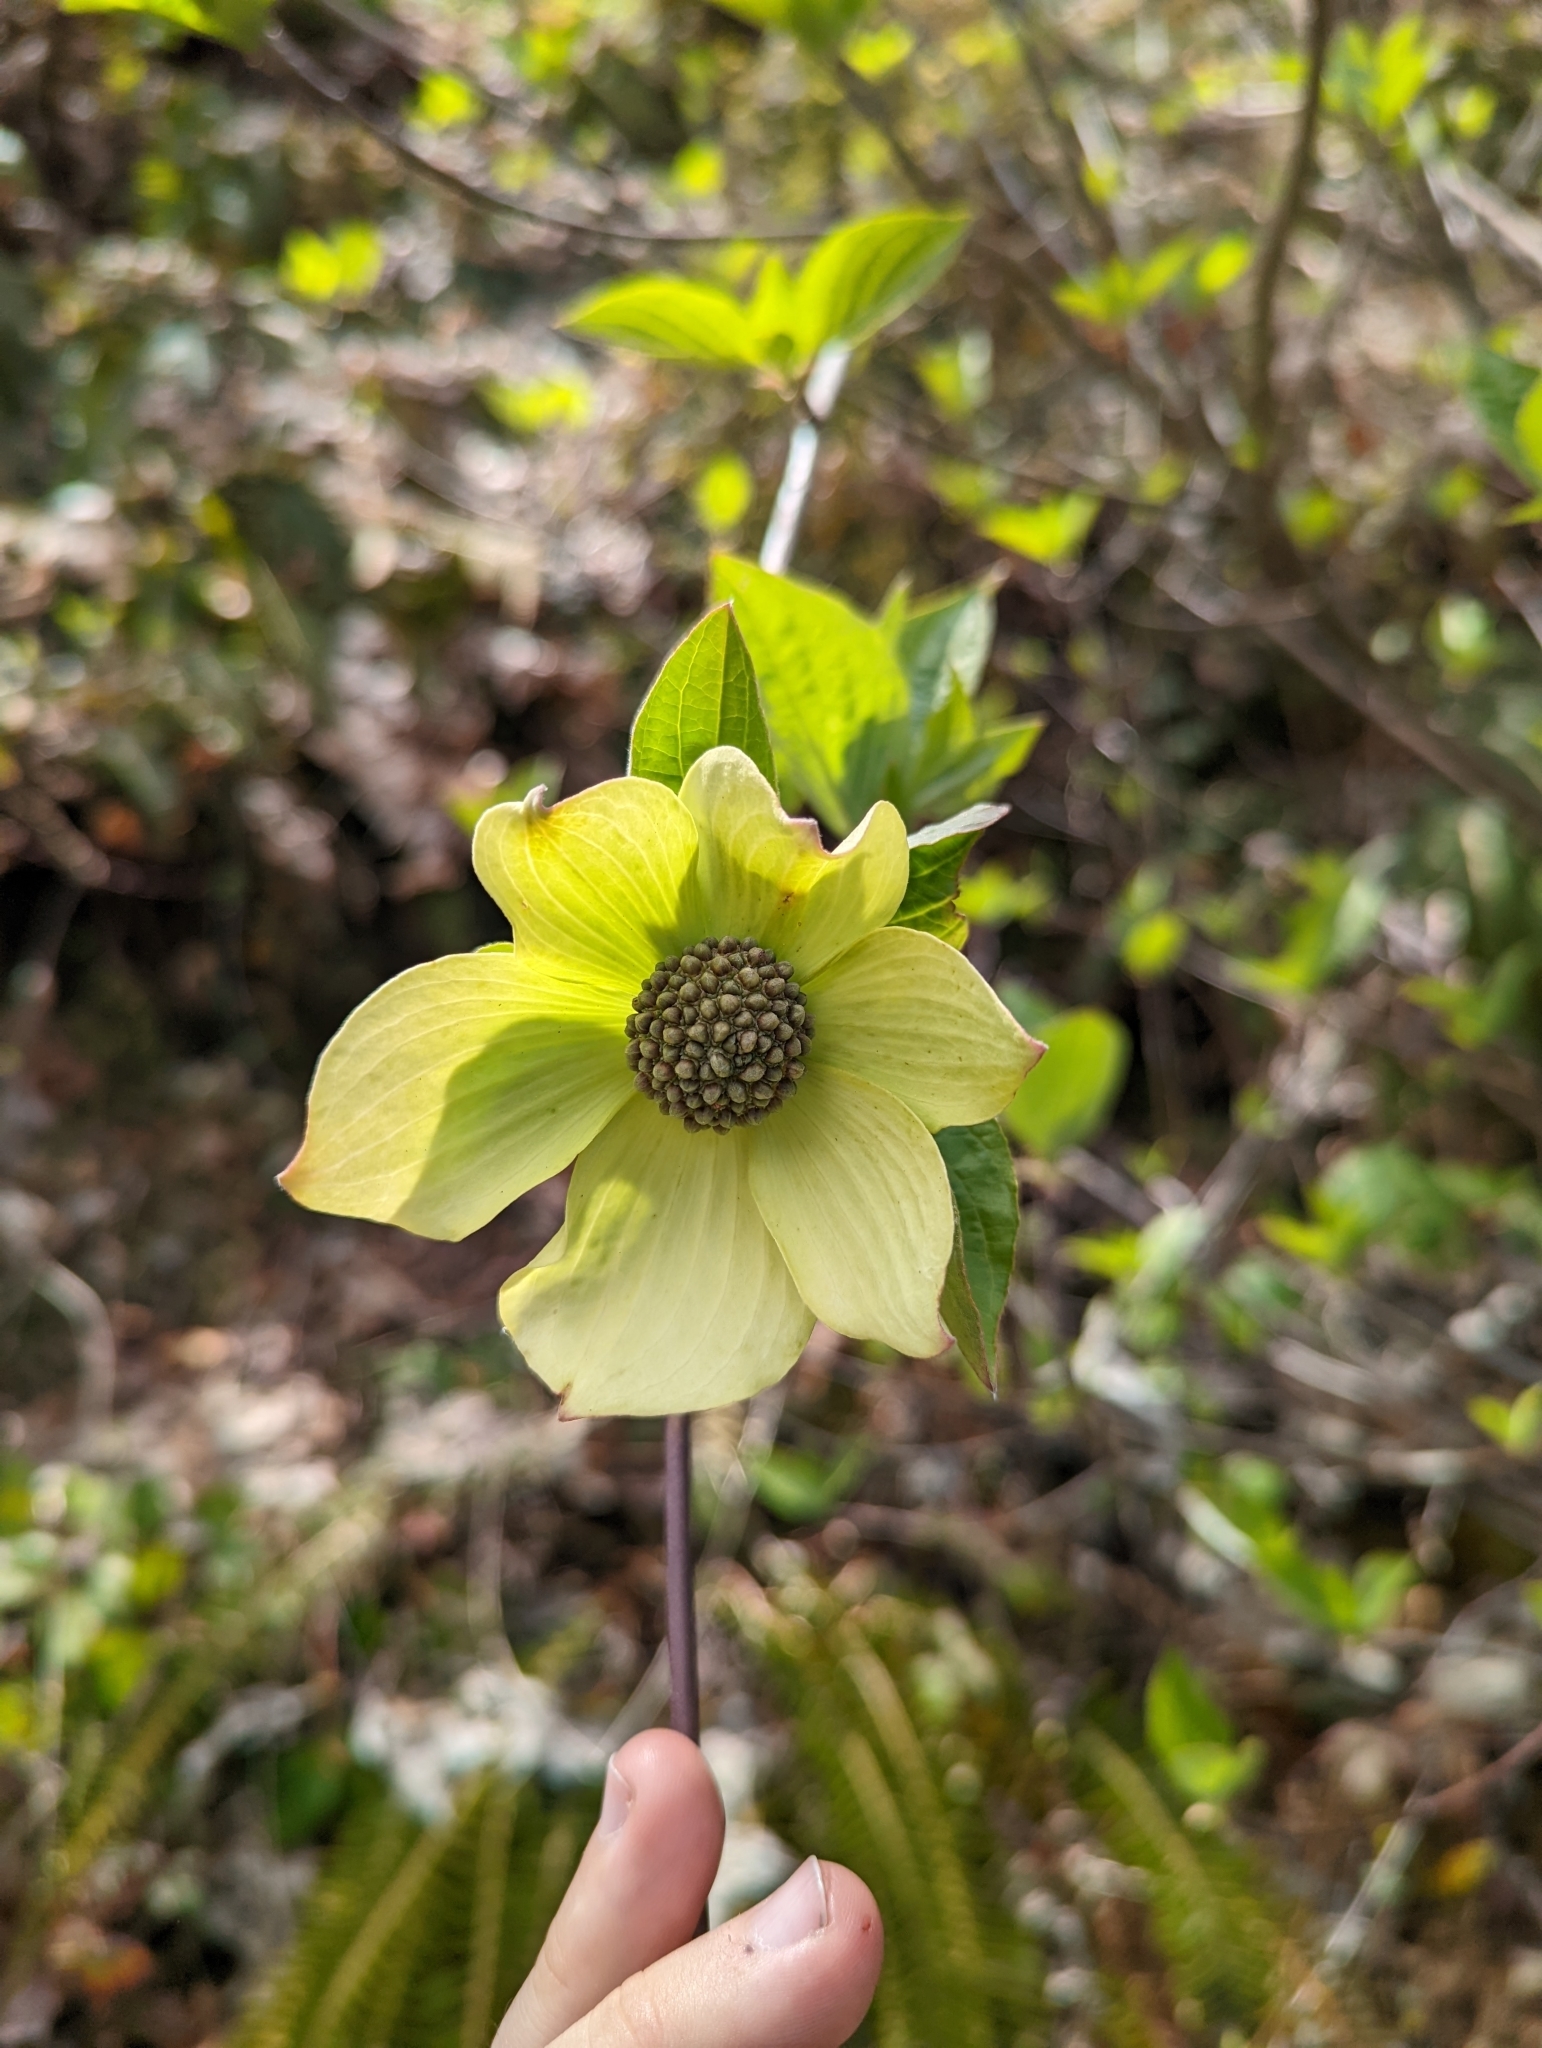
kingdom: Plantae
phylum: Tracheophyta
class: Magnoliopsida
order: Cornales
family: Cornaceae
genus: Cornus
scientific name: Cornus nuttallii
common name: Pacific dogwood
